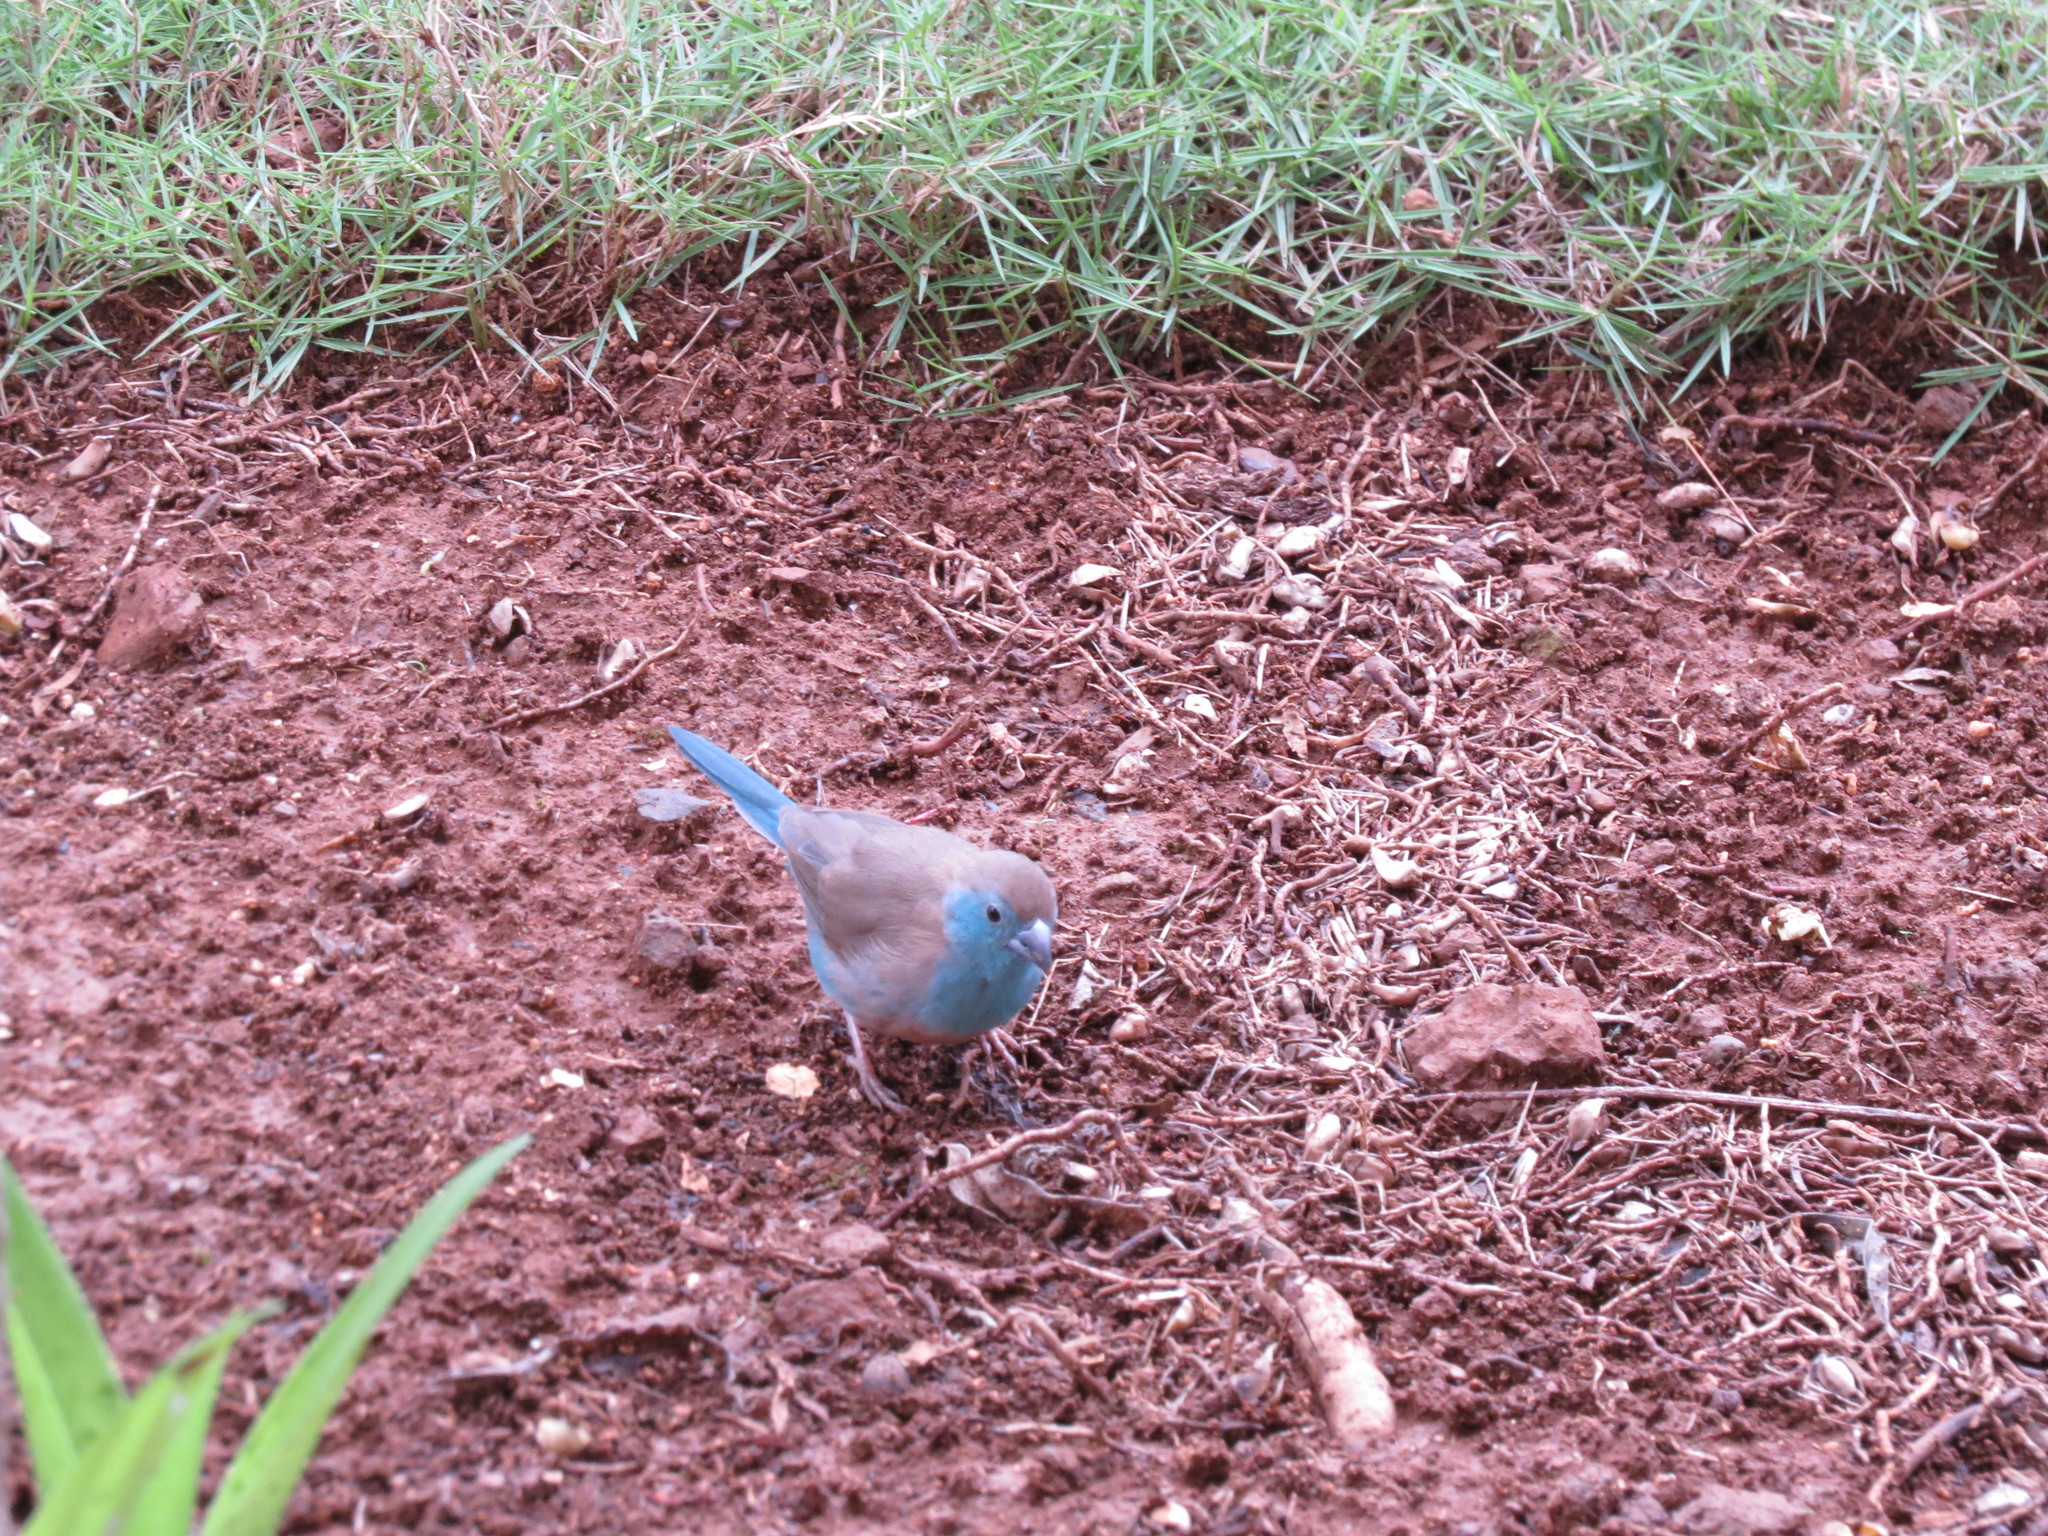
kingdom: Animalia
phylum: Chordata
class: Aves
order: Passeriformes
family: Estrildidae
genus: Uraeginthus
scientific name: Uraeginthus angolensis
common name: Blue waxbill
